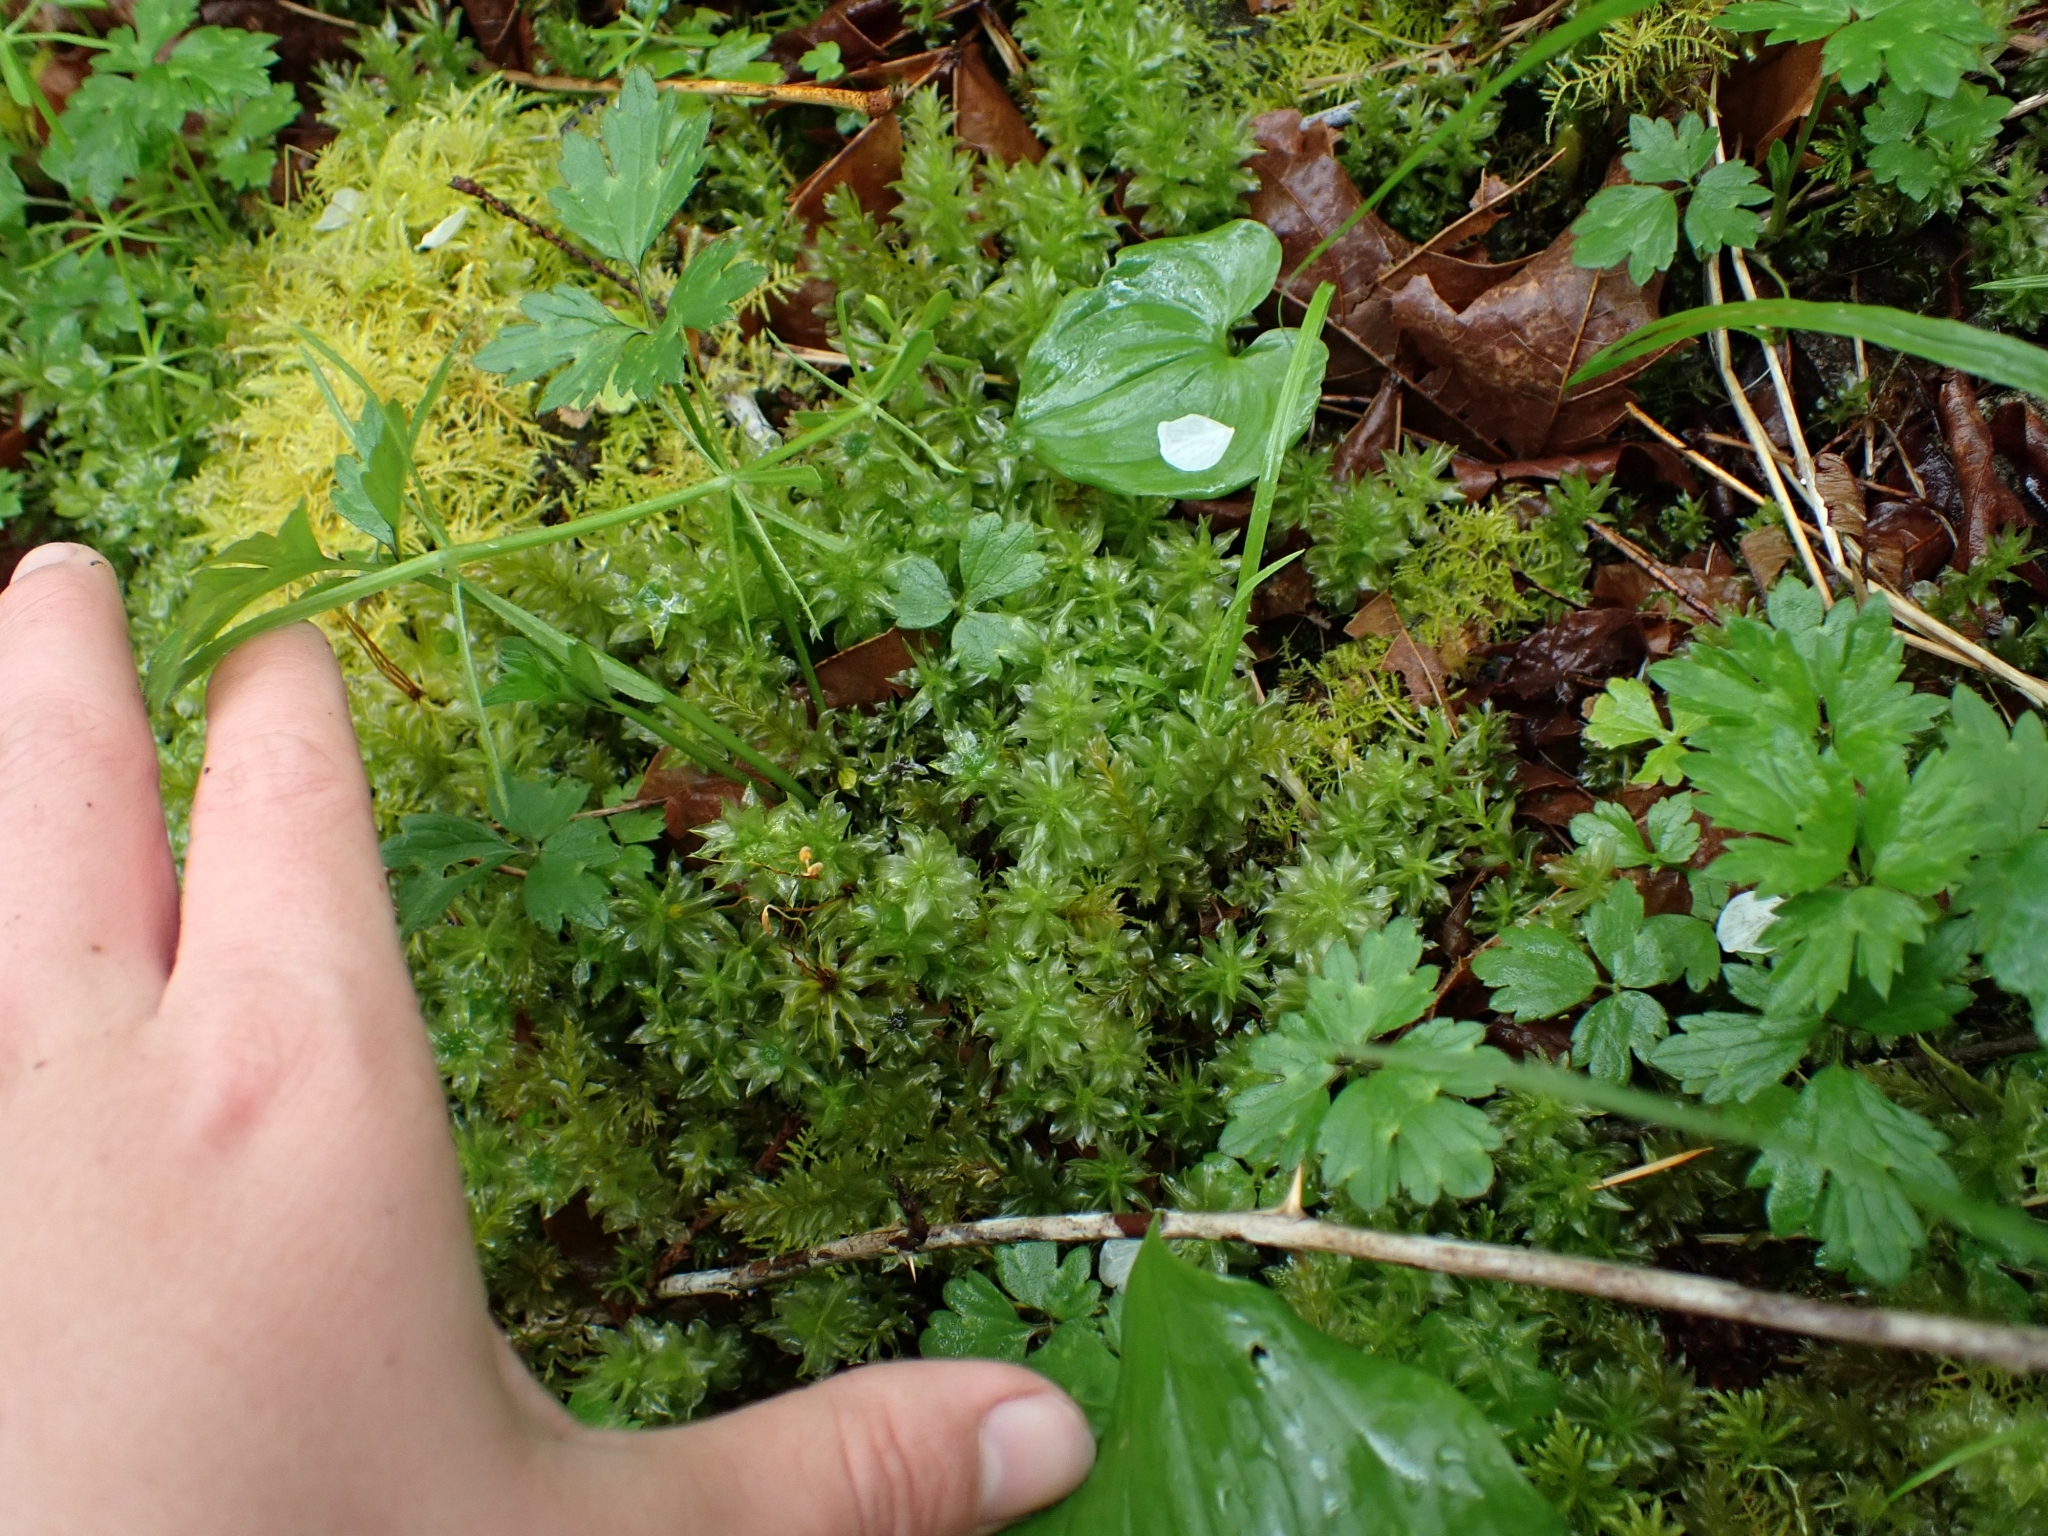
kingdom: Plantae
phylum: Bryophyta
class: Bryopsida
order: Bryales
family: Mniaceae
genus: Plagiomnium
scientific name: Plagiomnium insigne
